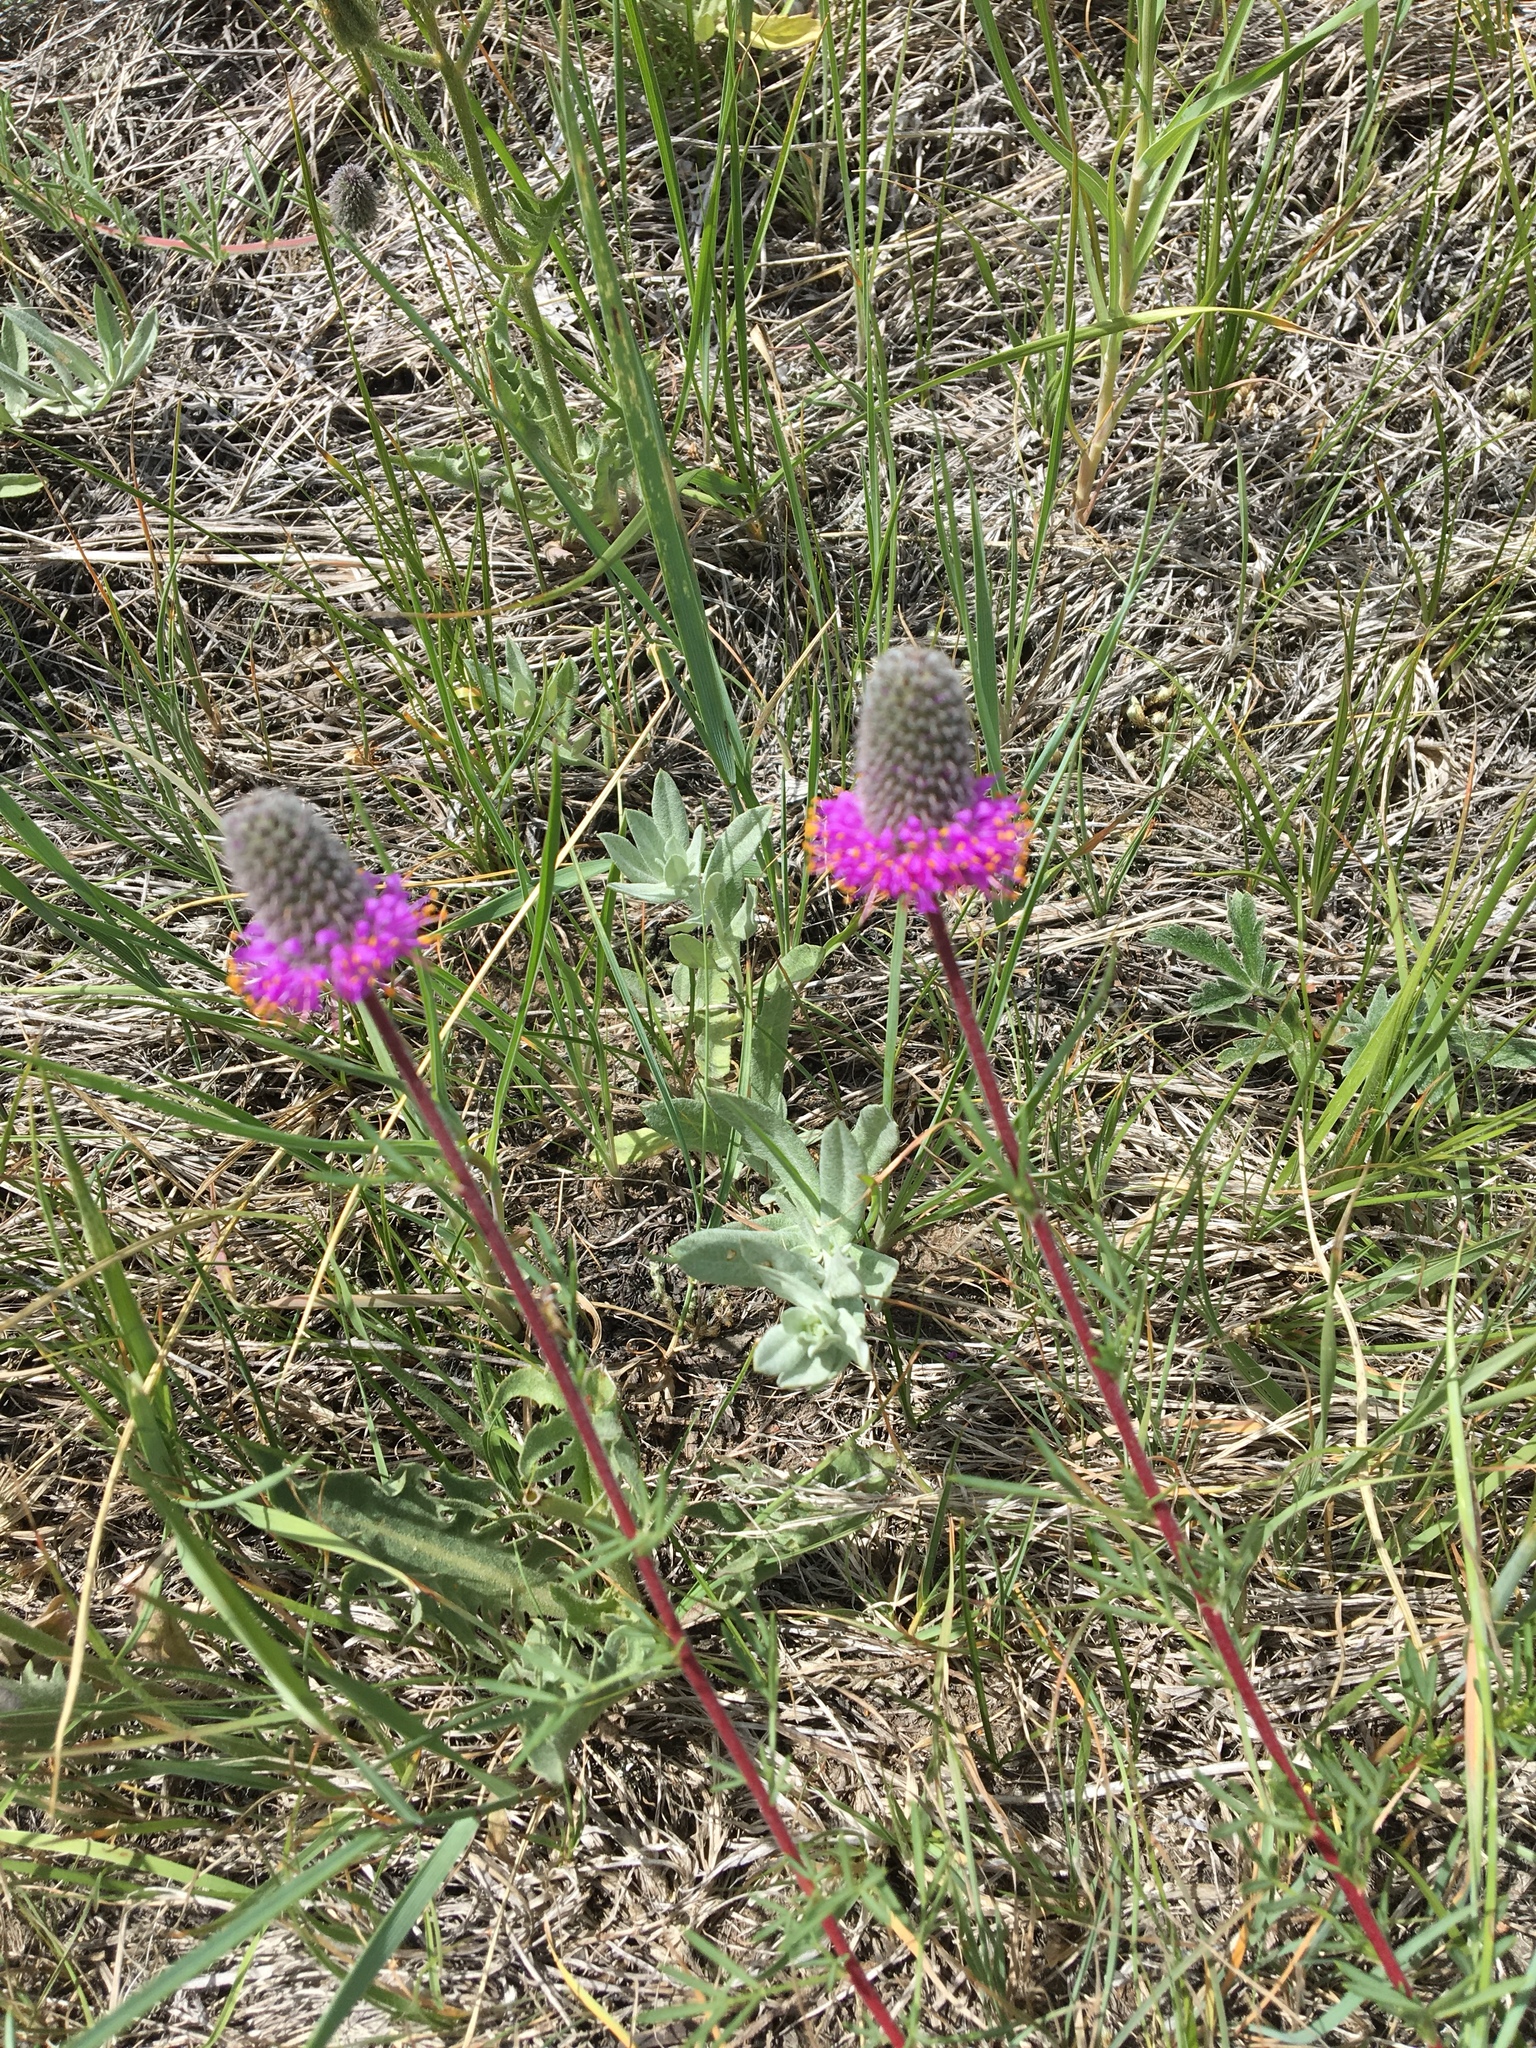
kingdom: Plantae
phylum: Tracheophyta
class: Magnoliopsida
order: Fabales
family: Fabaceae
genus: Dalea
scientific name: Dalea purpurea
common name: Purple prairie-clover
